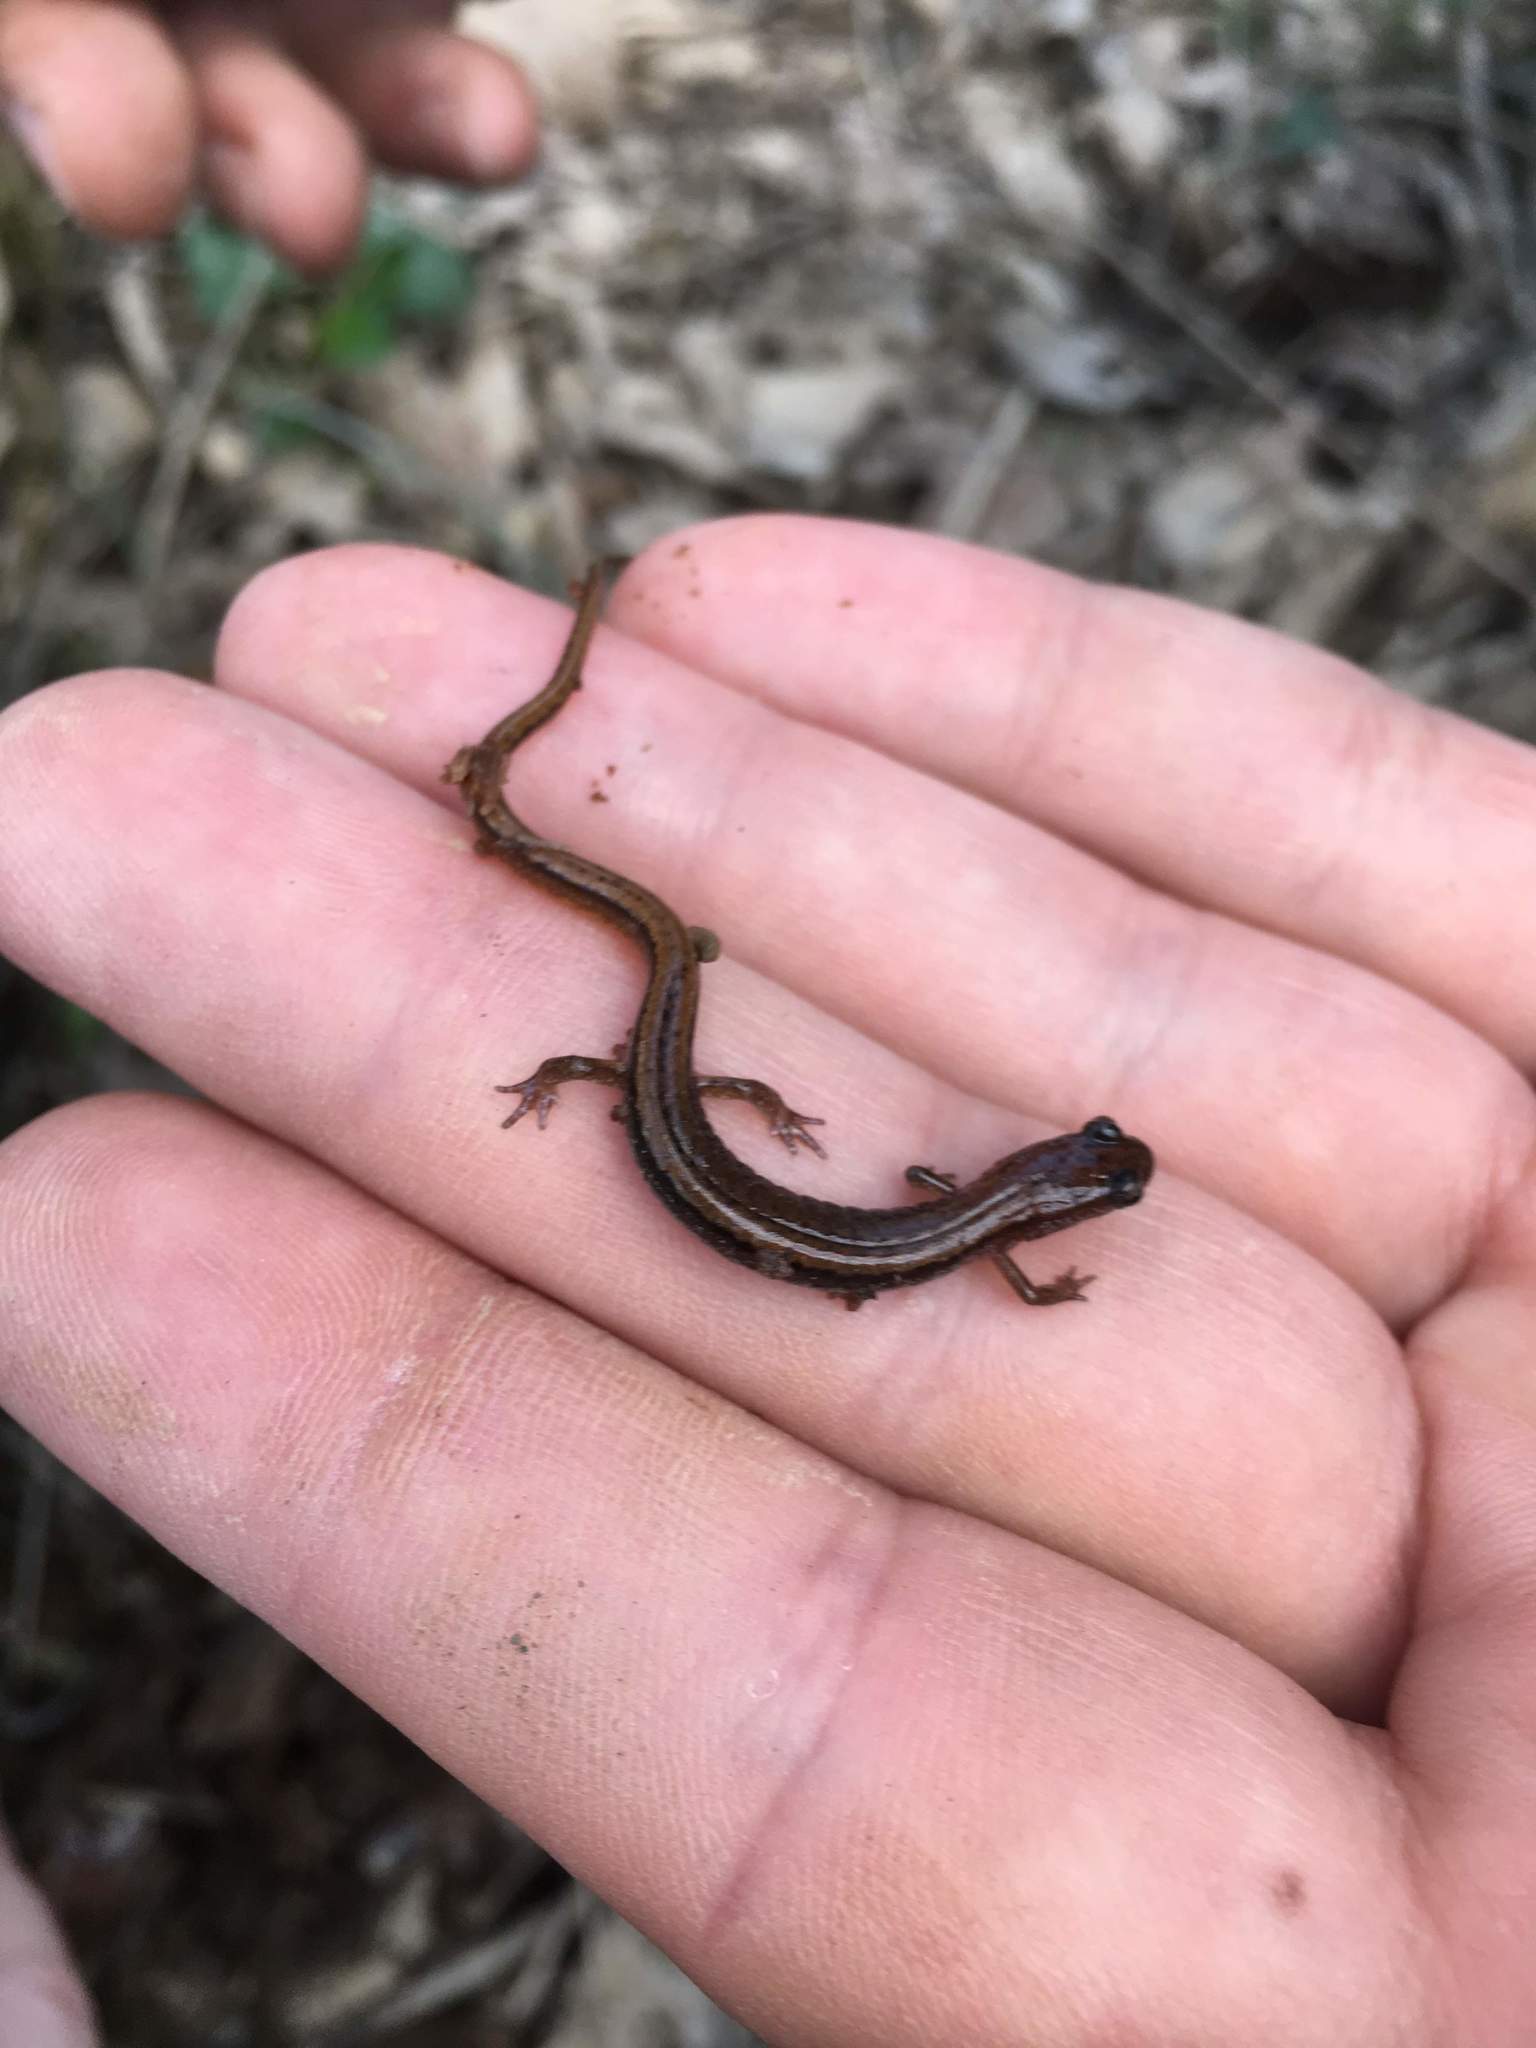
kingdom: Animalia
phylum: Chordata
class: Amphibia
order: Caudata
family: Plethodontidae
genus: Eurycea
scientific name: Eurycea paludicola
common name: Western dwarf salamander
